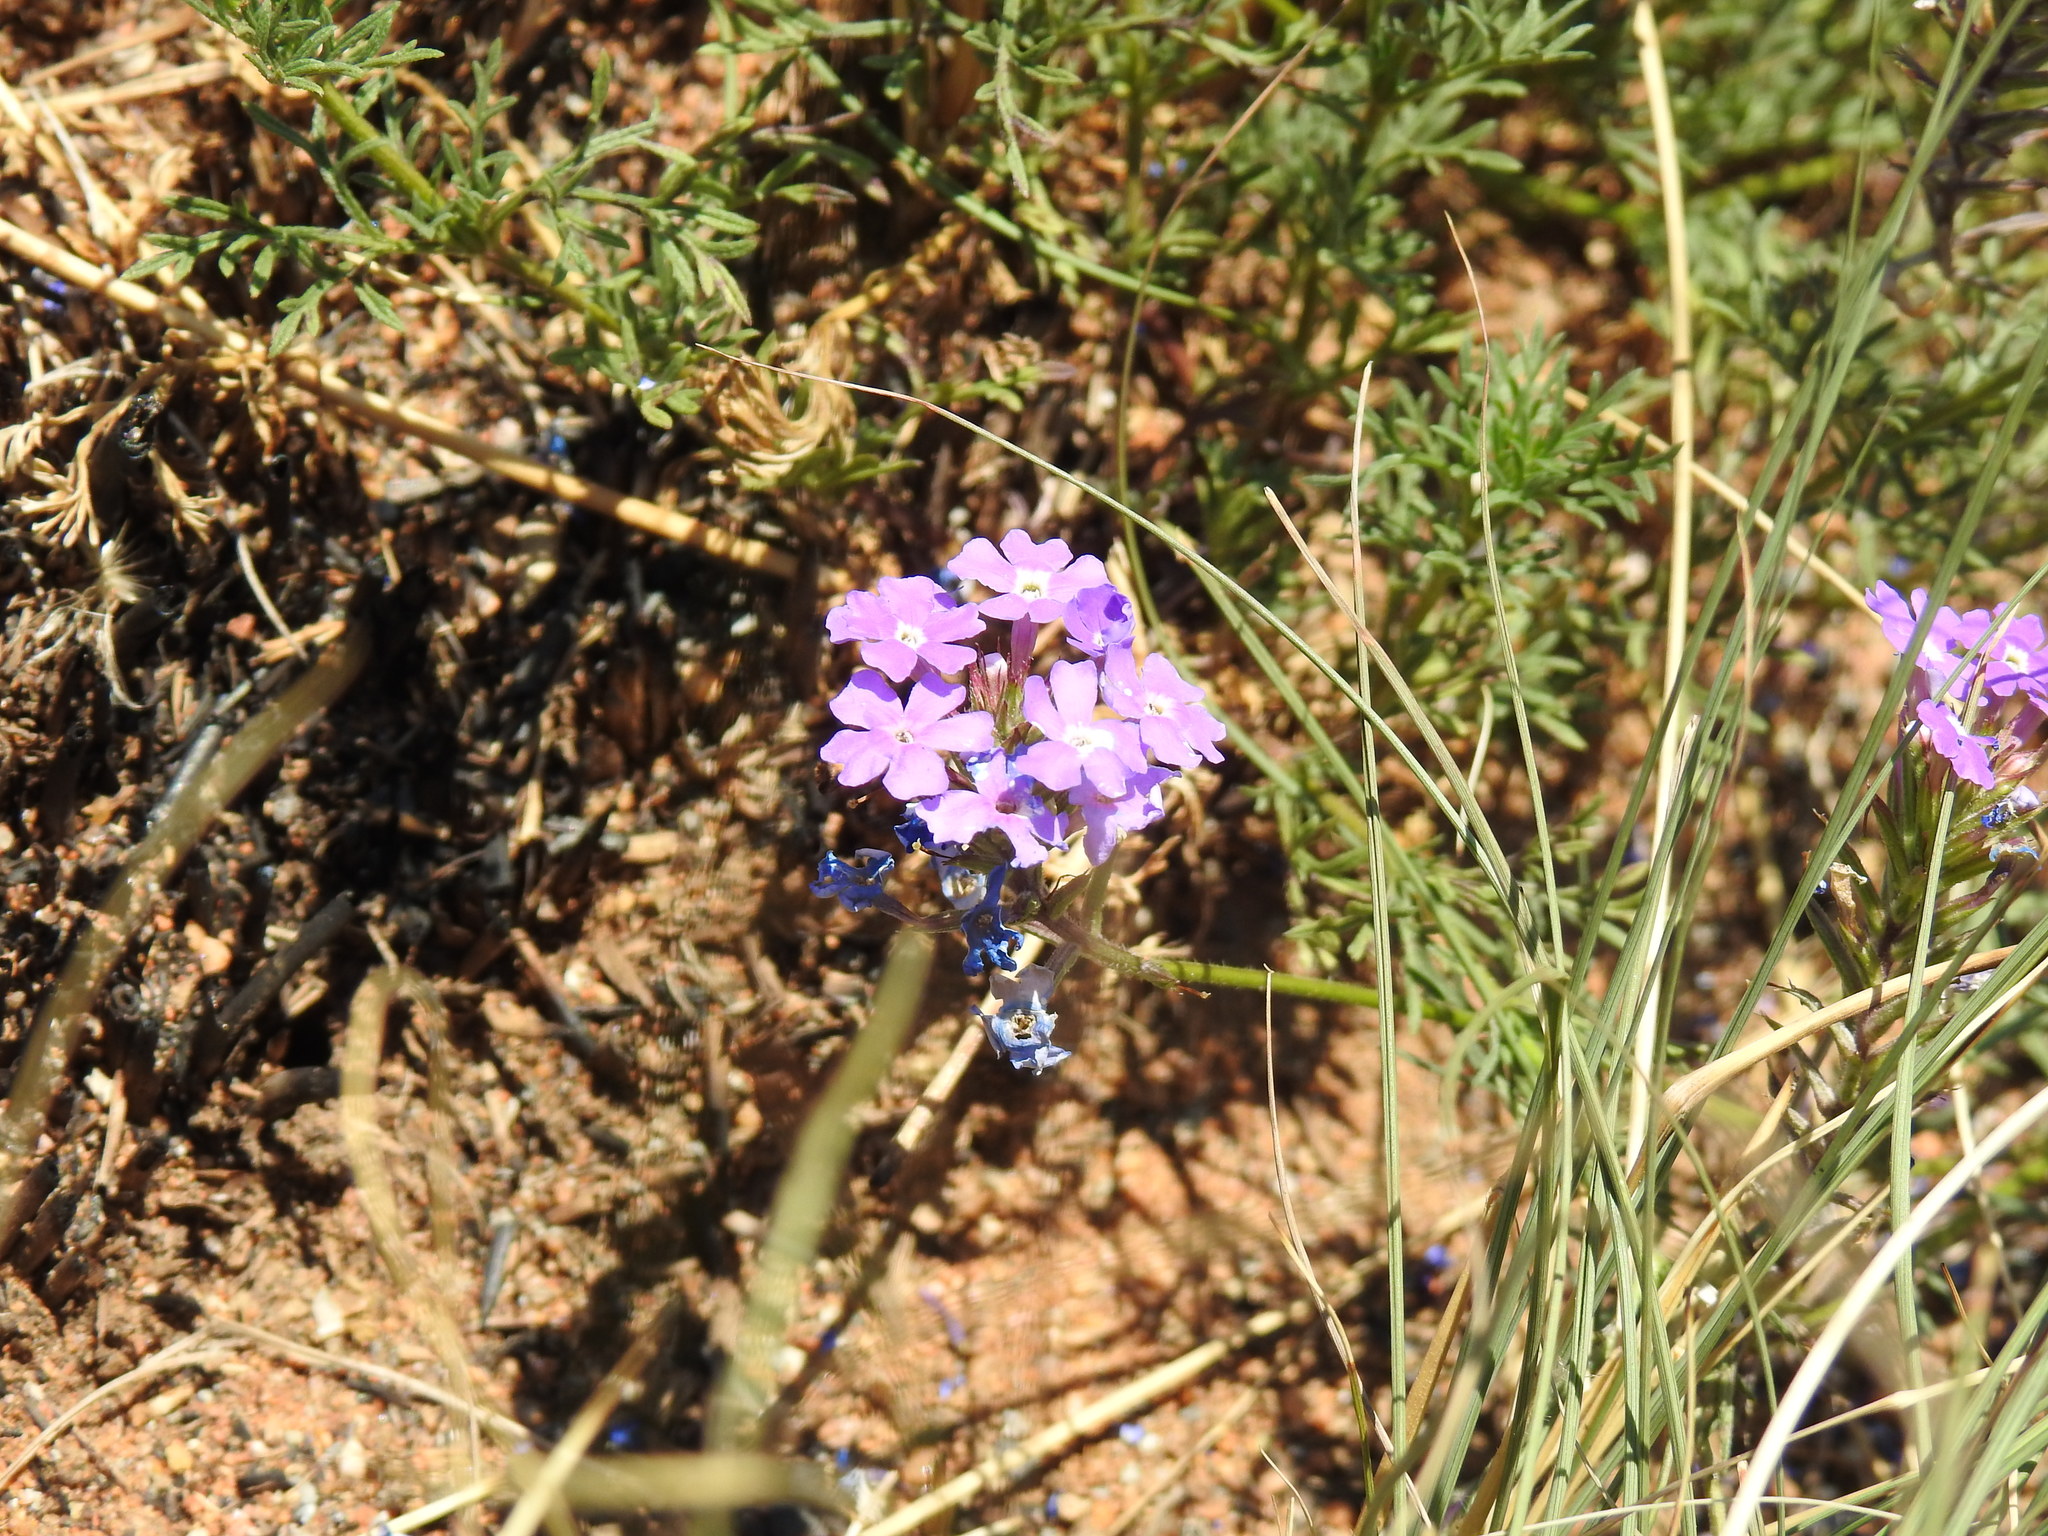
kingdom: Plantae
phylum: Tracheophyta
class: Magnoliopsida
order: Lamiales
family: Verbenaceae
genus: Verbena
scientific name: Verbena aristigera
